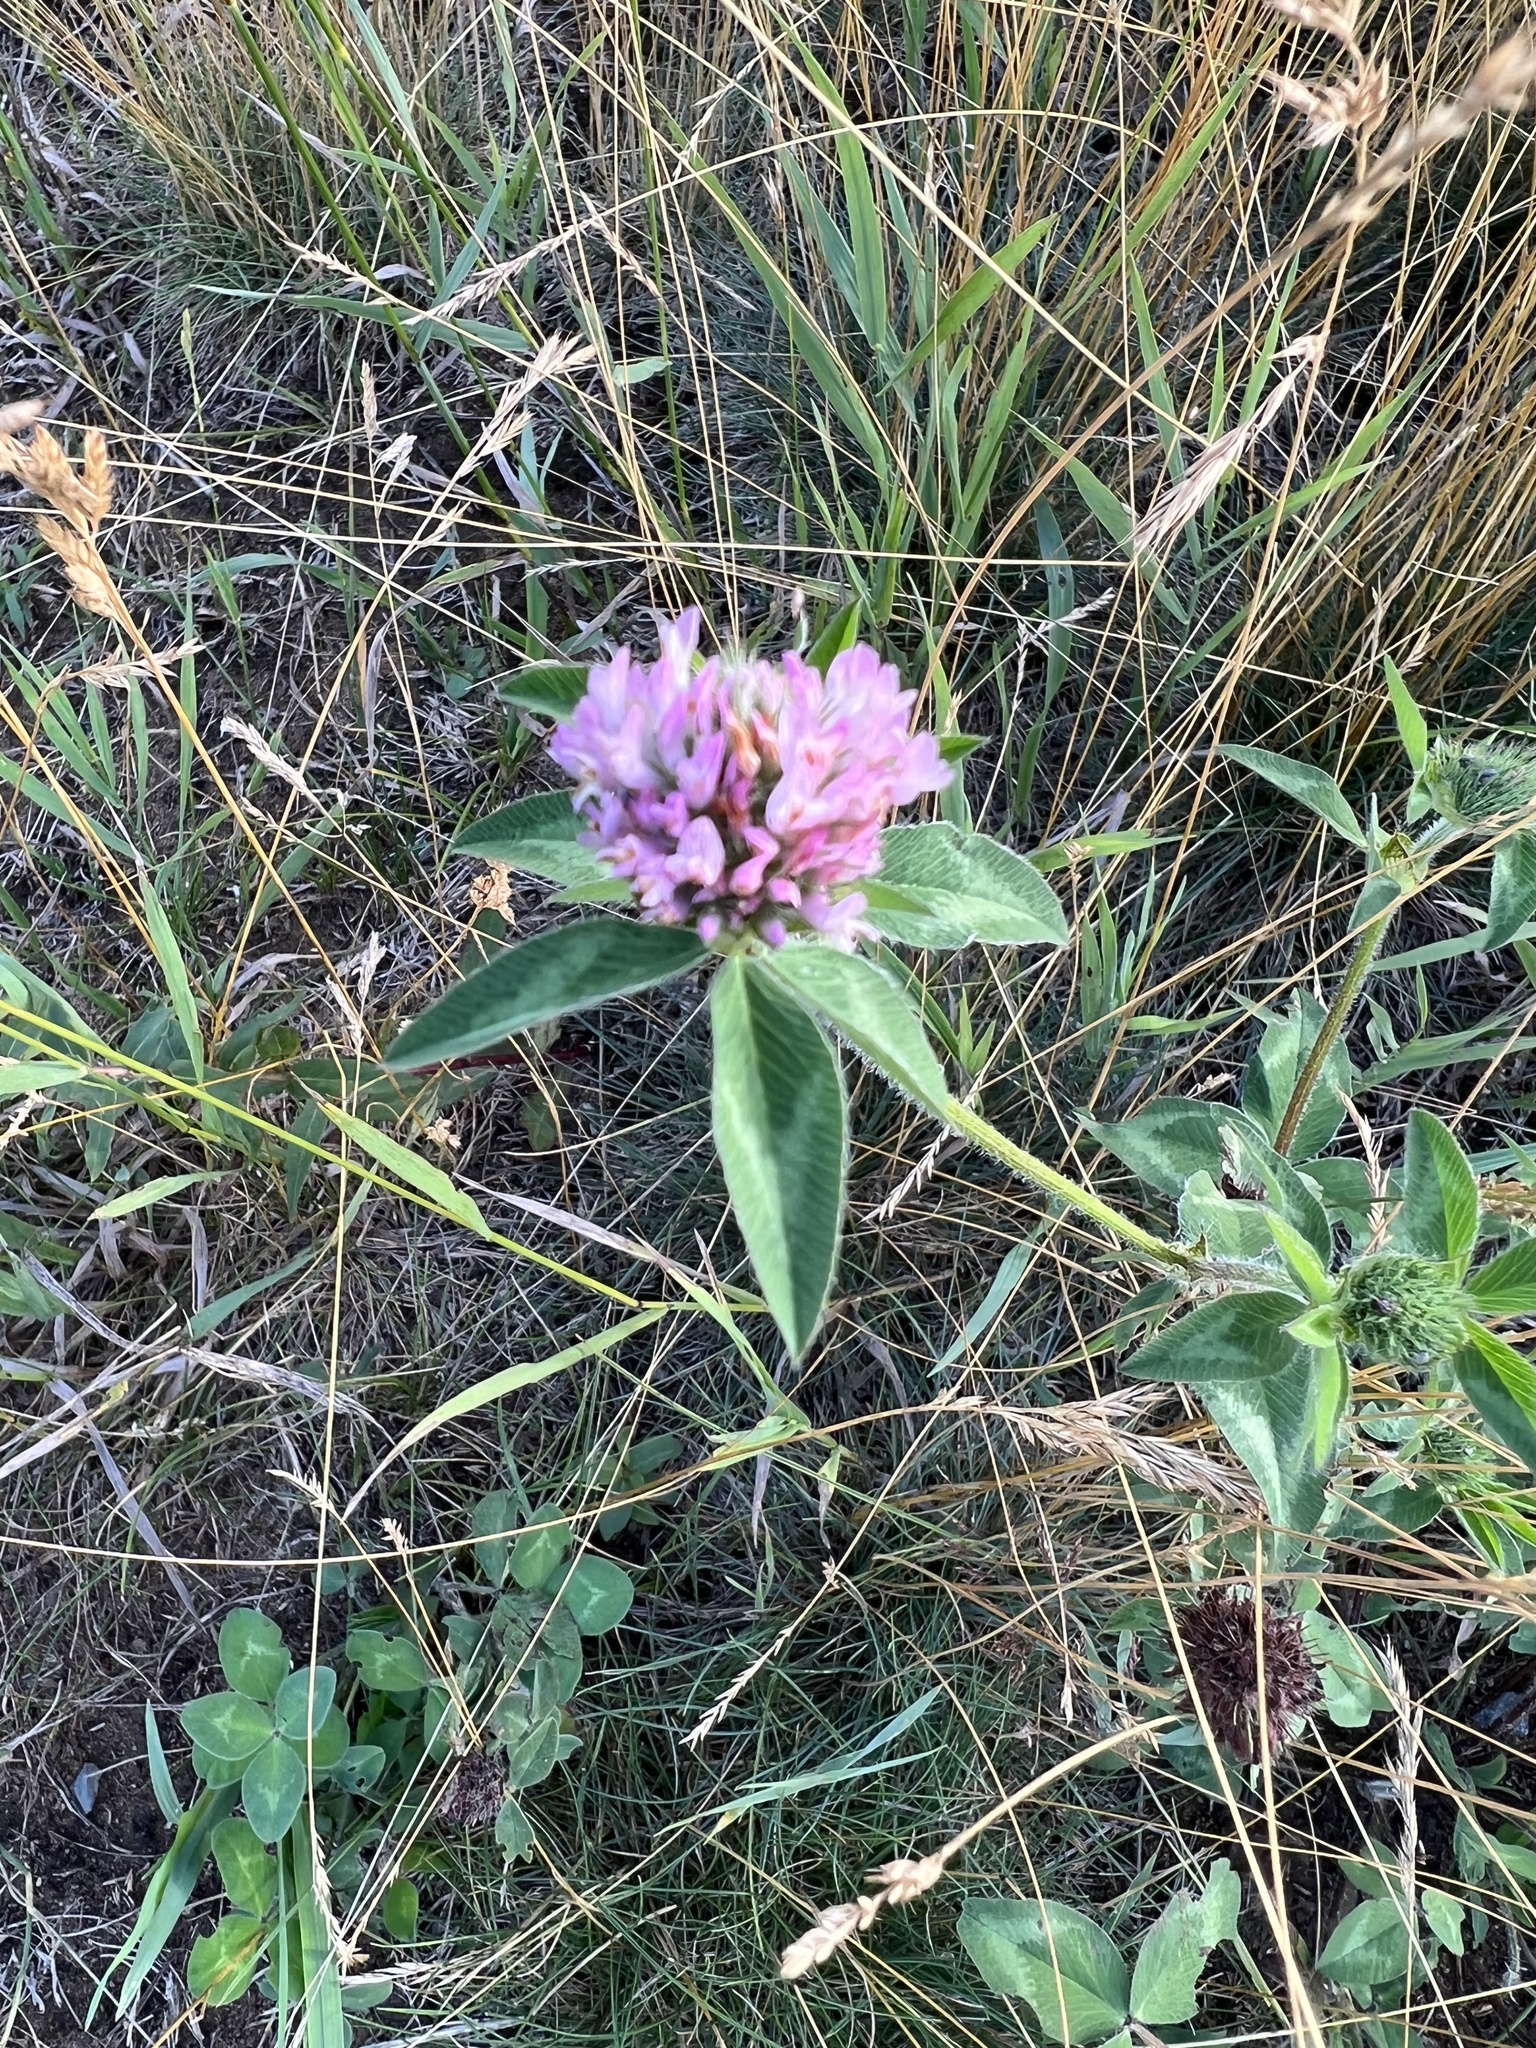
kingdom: Plantae
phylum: Tracheophyta
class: Magnoliopsida
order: Fabales
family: Fabaceae
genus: Trifolium
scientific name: Trifolium pratense
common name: Red clover
